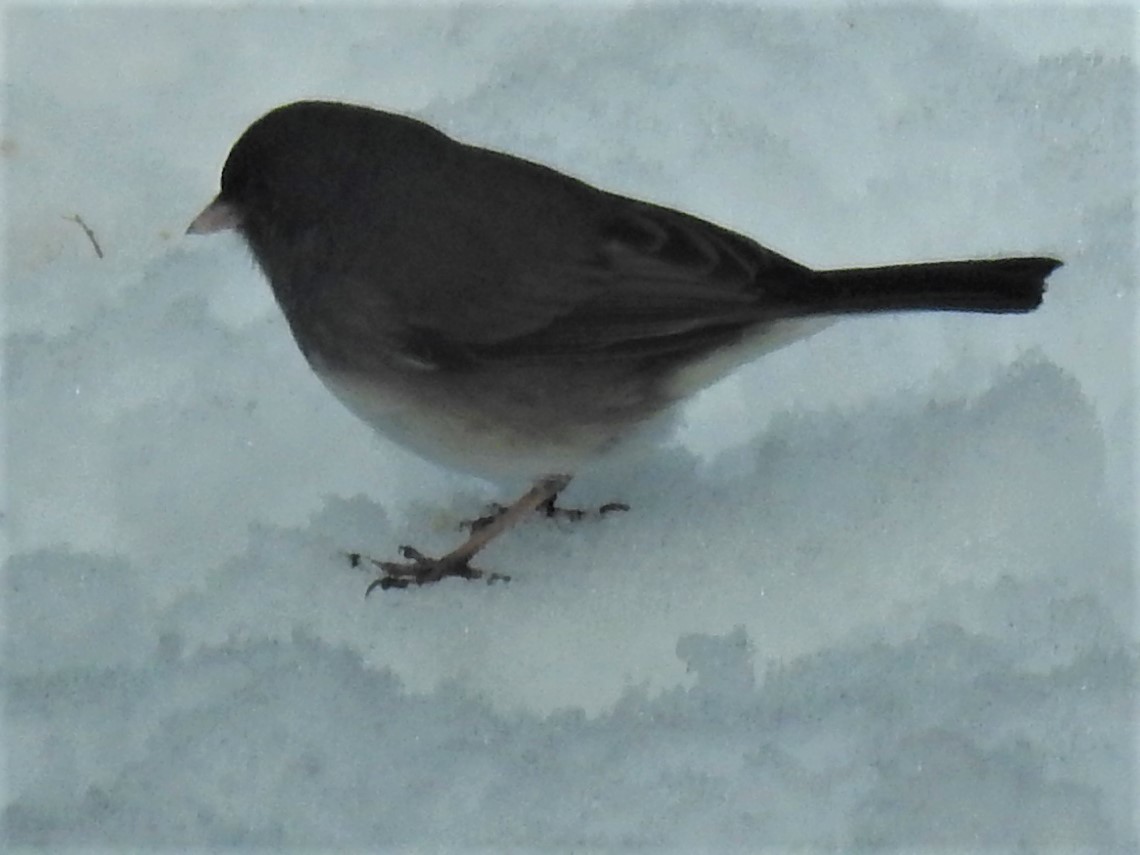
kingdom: Animalia
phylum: Chordata
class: Aves
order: Passeriformes
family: Passerellidae
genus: Junco
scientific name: Junco hyemalis
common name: Dark-eyed junco
